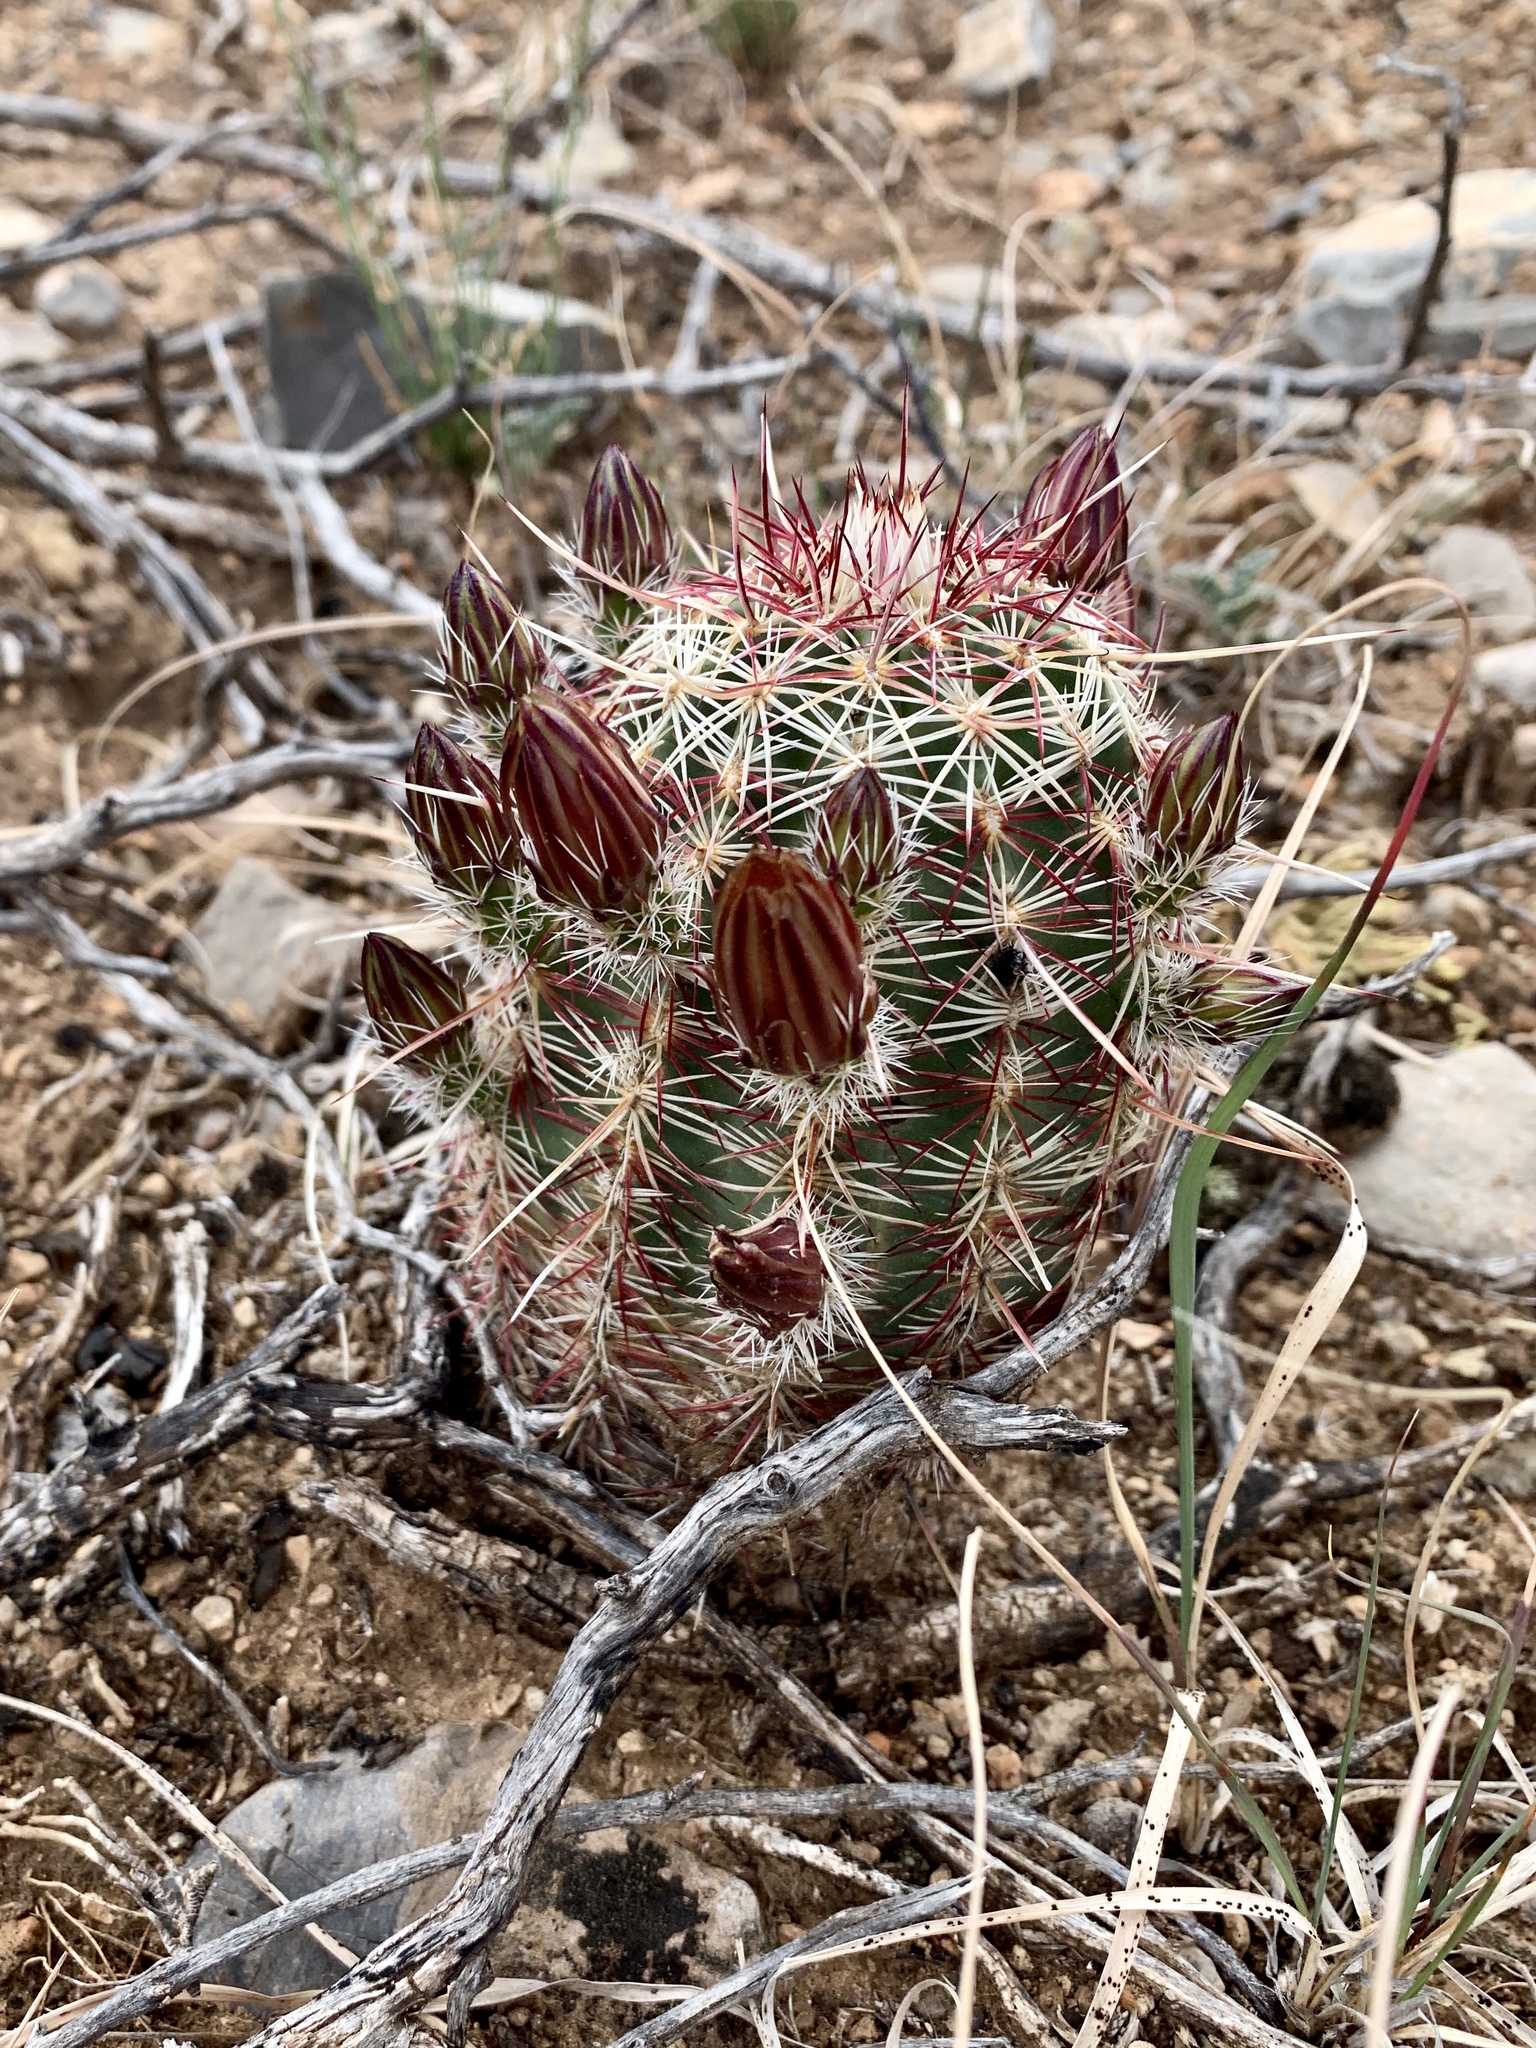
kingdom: Plantae
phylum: Tracheophyta
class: Magnoliopsida
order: Caryophyllales
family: Cactaceae
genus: Echinocereus
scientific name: Echinocereus viridiflorus
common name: Nylon hedgehog cactus
